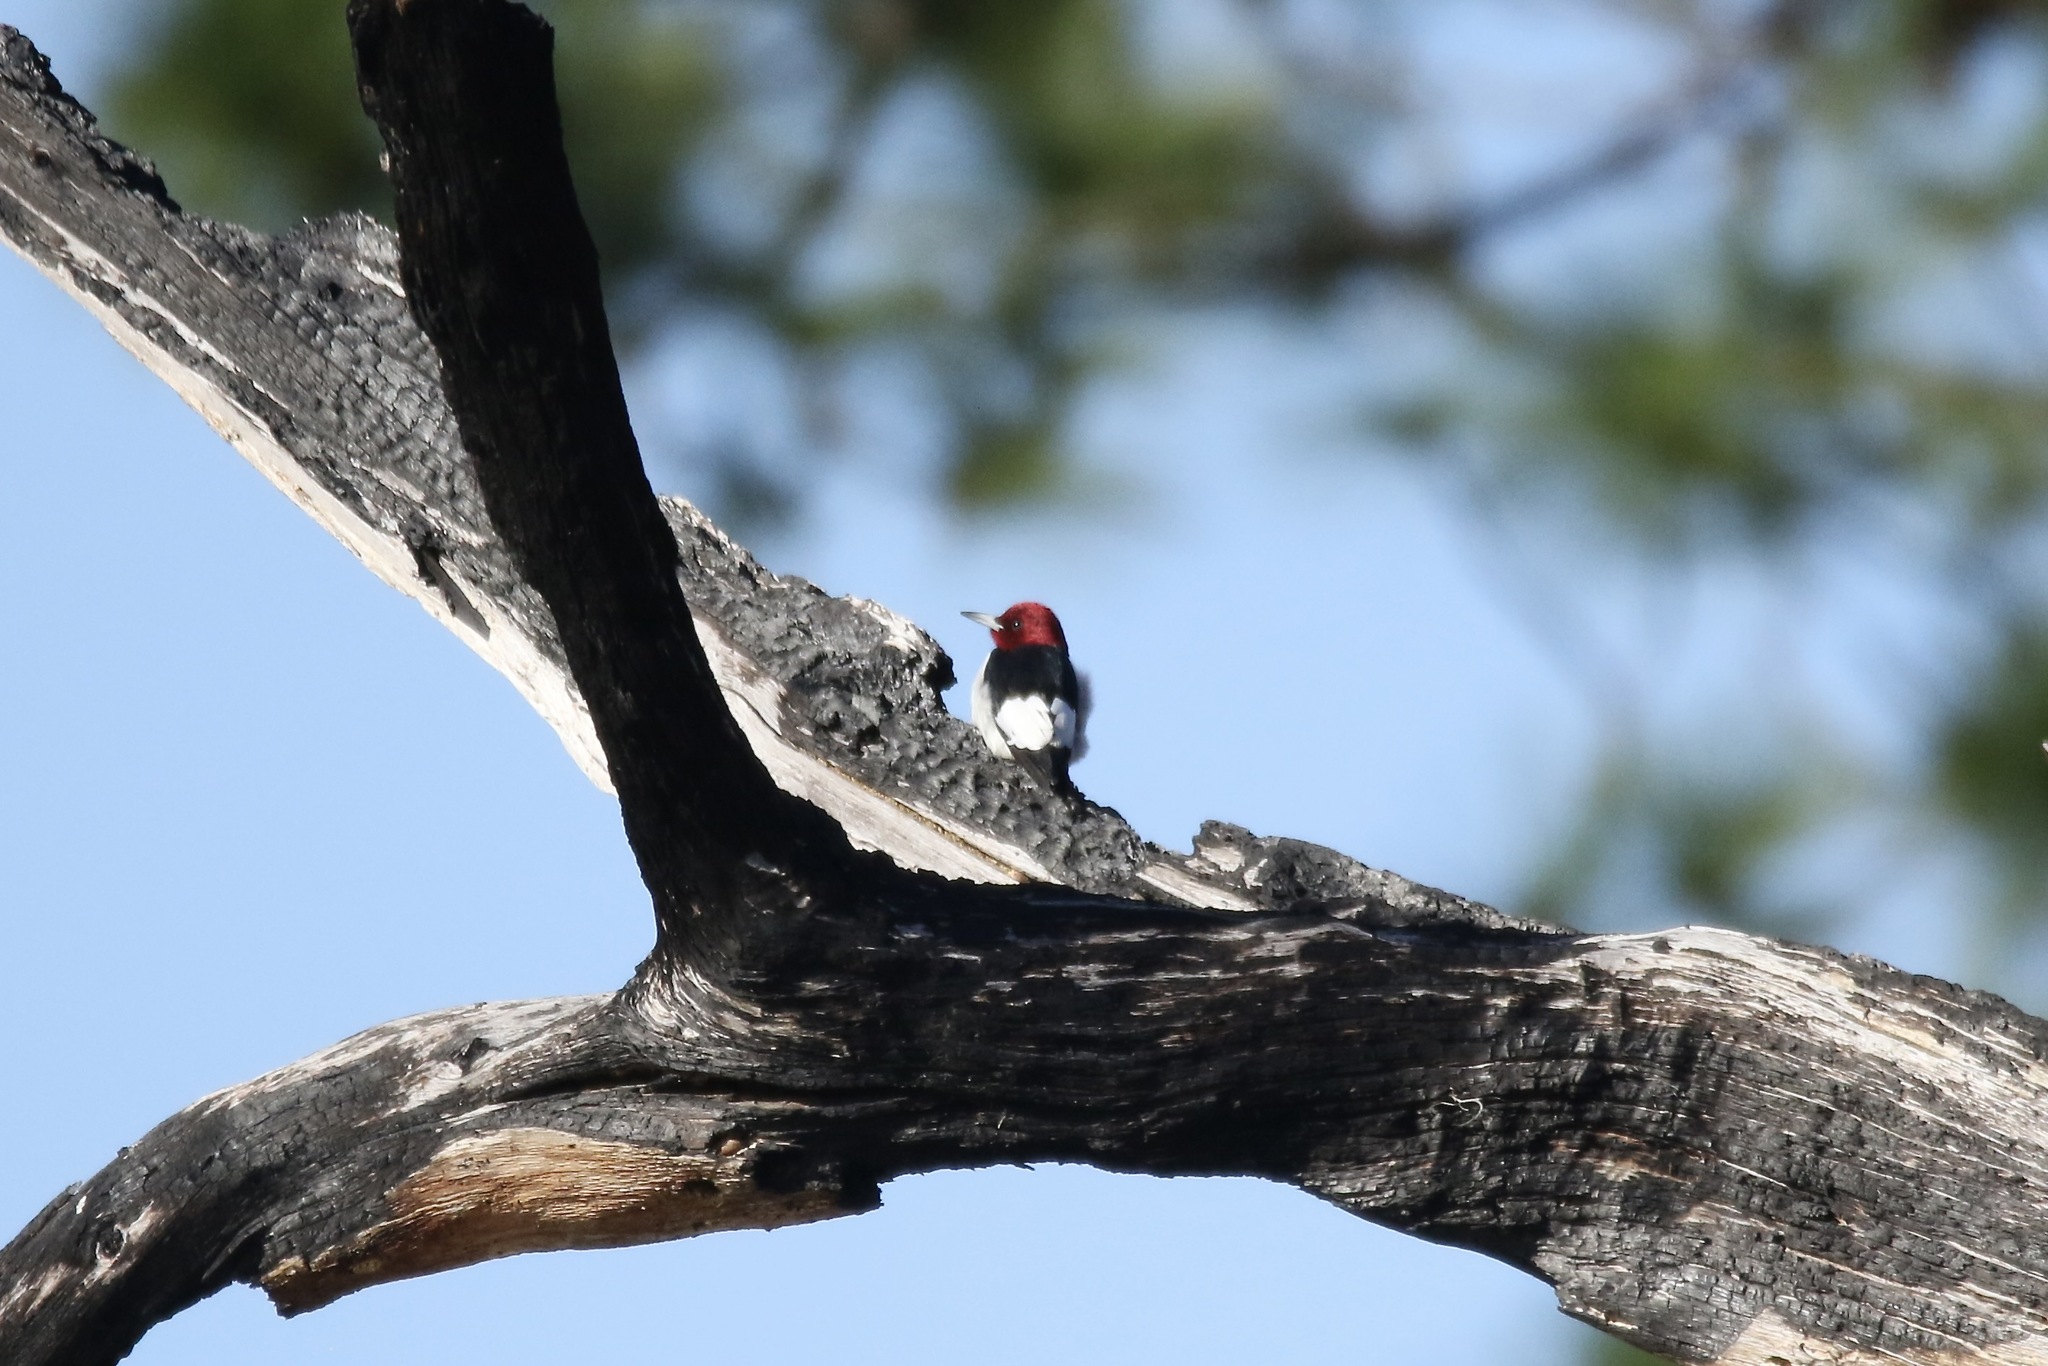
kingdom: Animalia
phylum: Chordata
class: Aves
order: Piciformes
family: Picidae
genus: Melanerpes
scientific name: Melanerpes erythrocephalus
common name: Red-headed woodpecker
